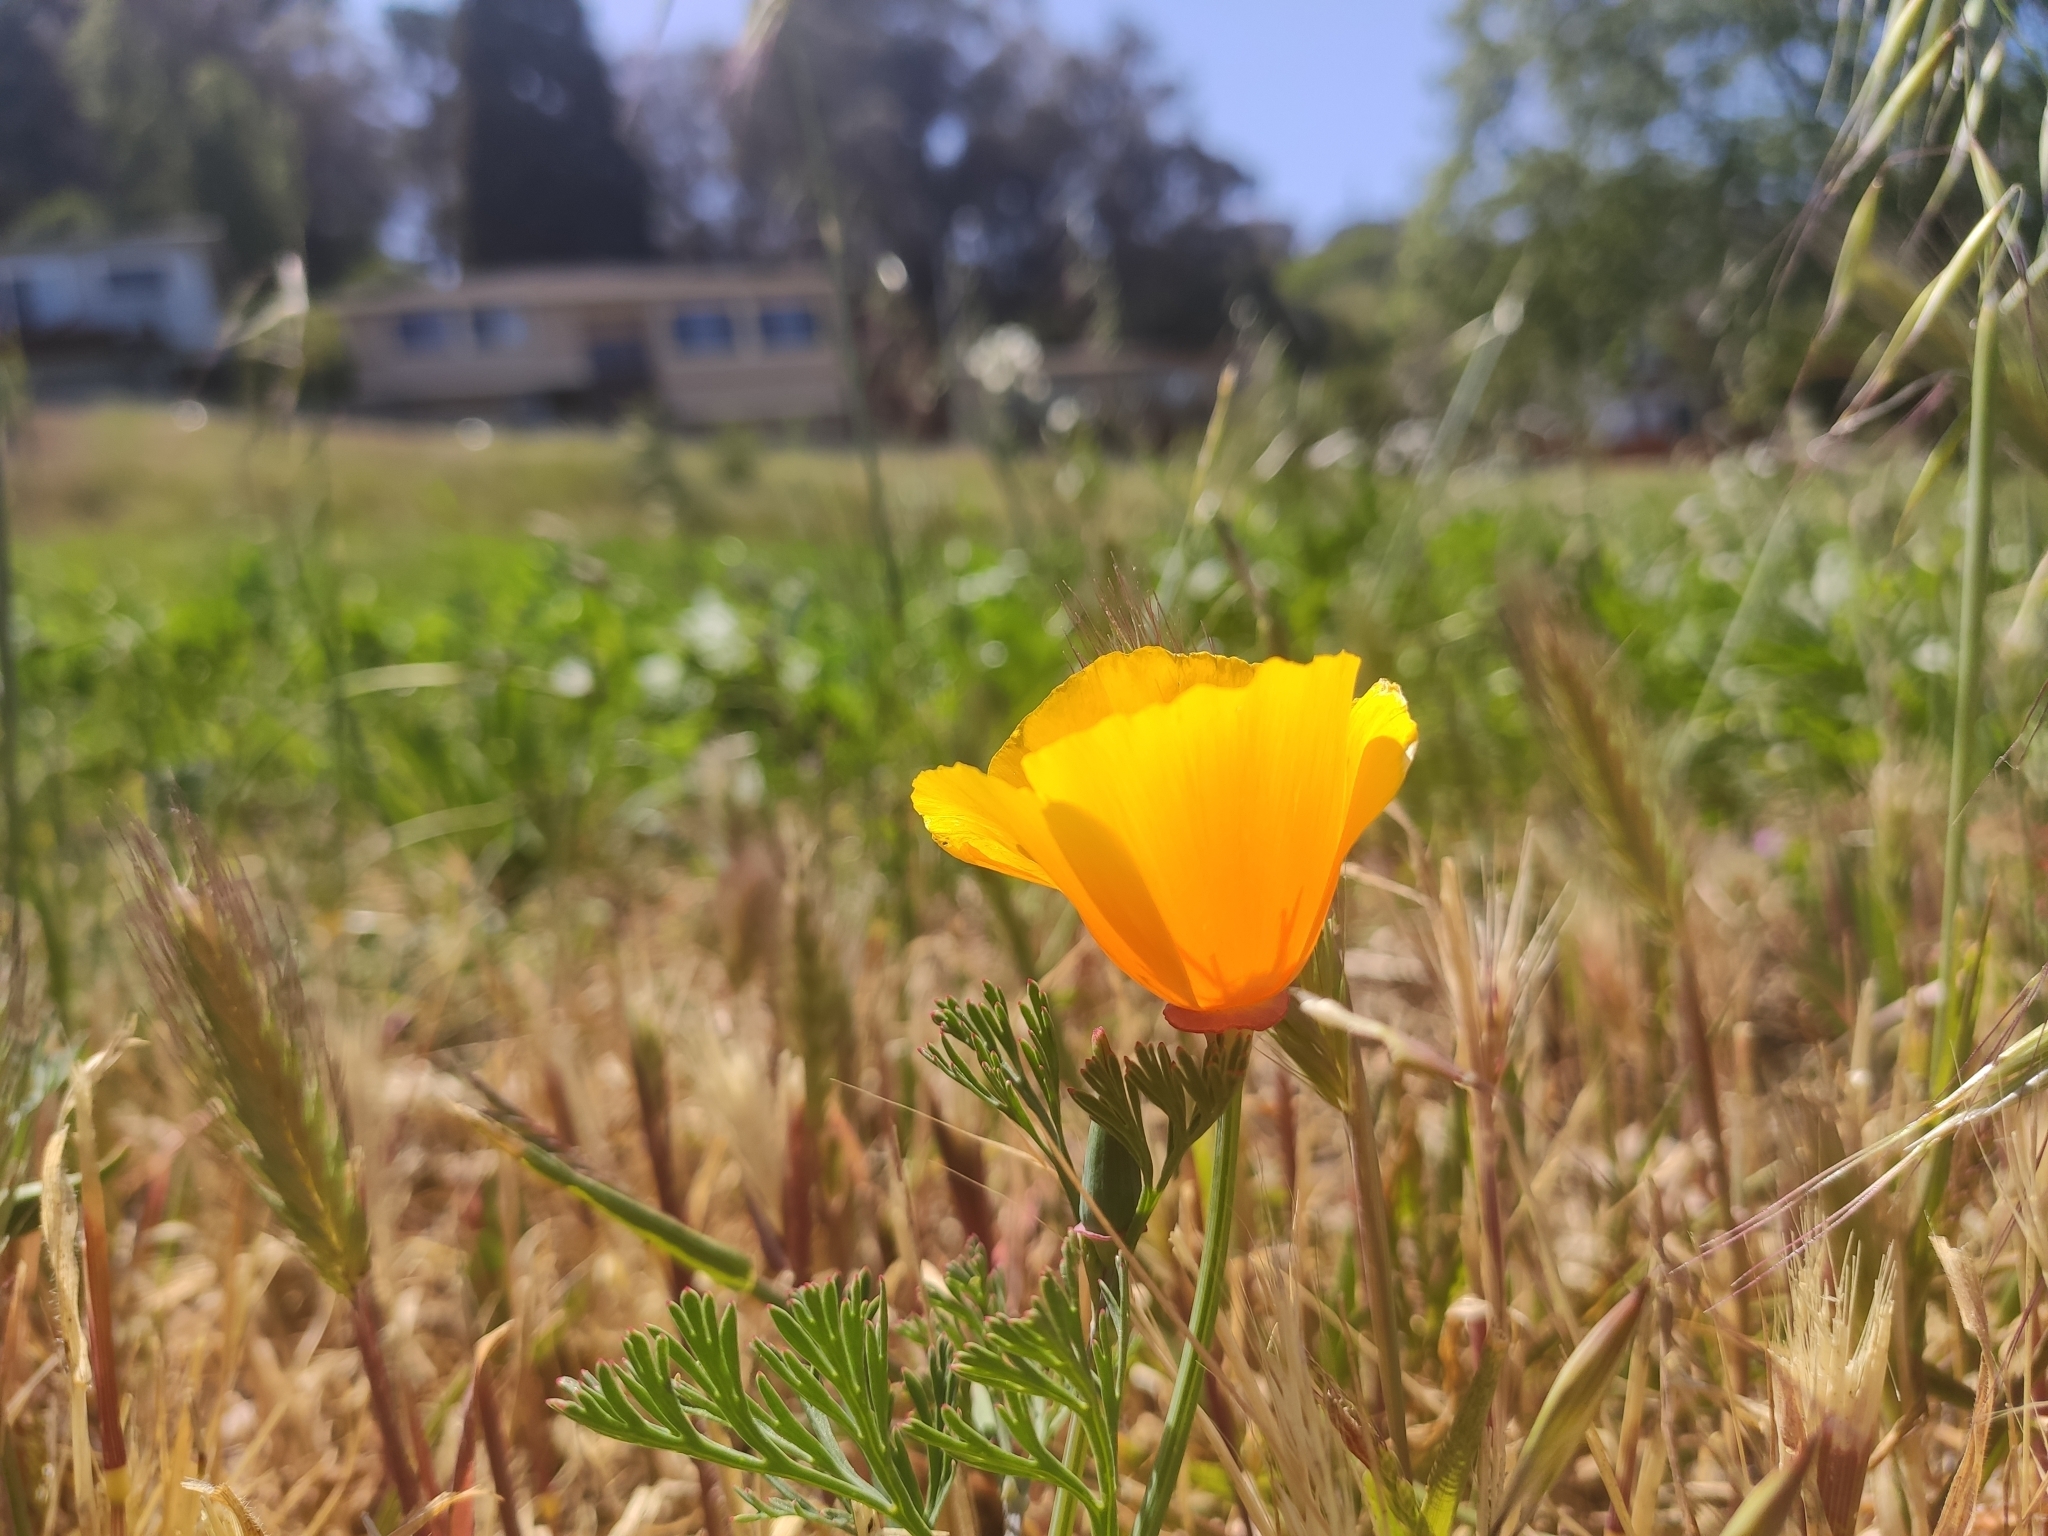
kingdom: Plantae
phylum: Tracheophyta
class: Magnoliopsida
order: Ranunculales
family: Papaveraceae
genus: Eschscholzia
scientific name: Eschscholzia californica
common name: California poppy
